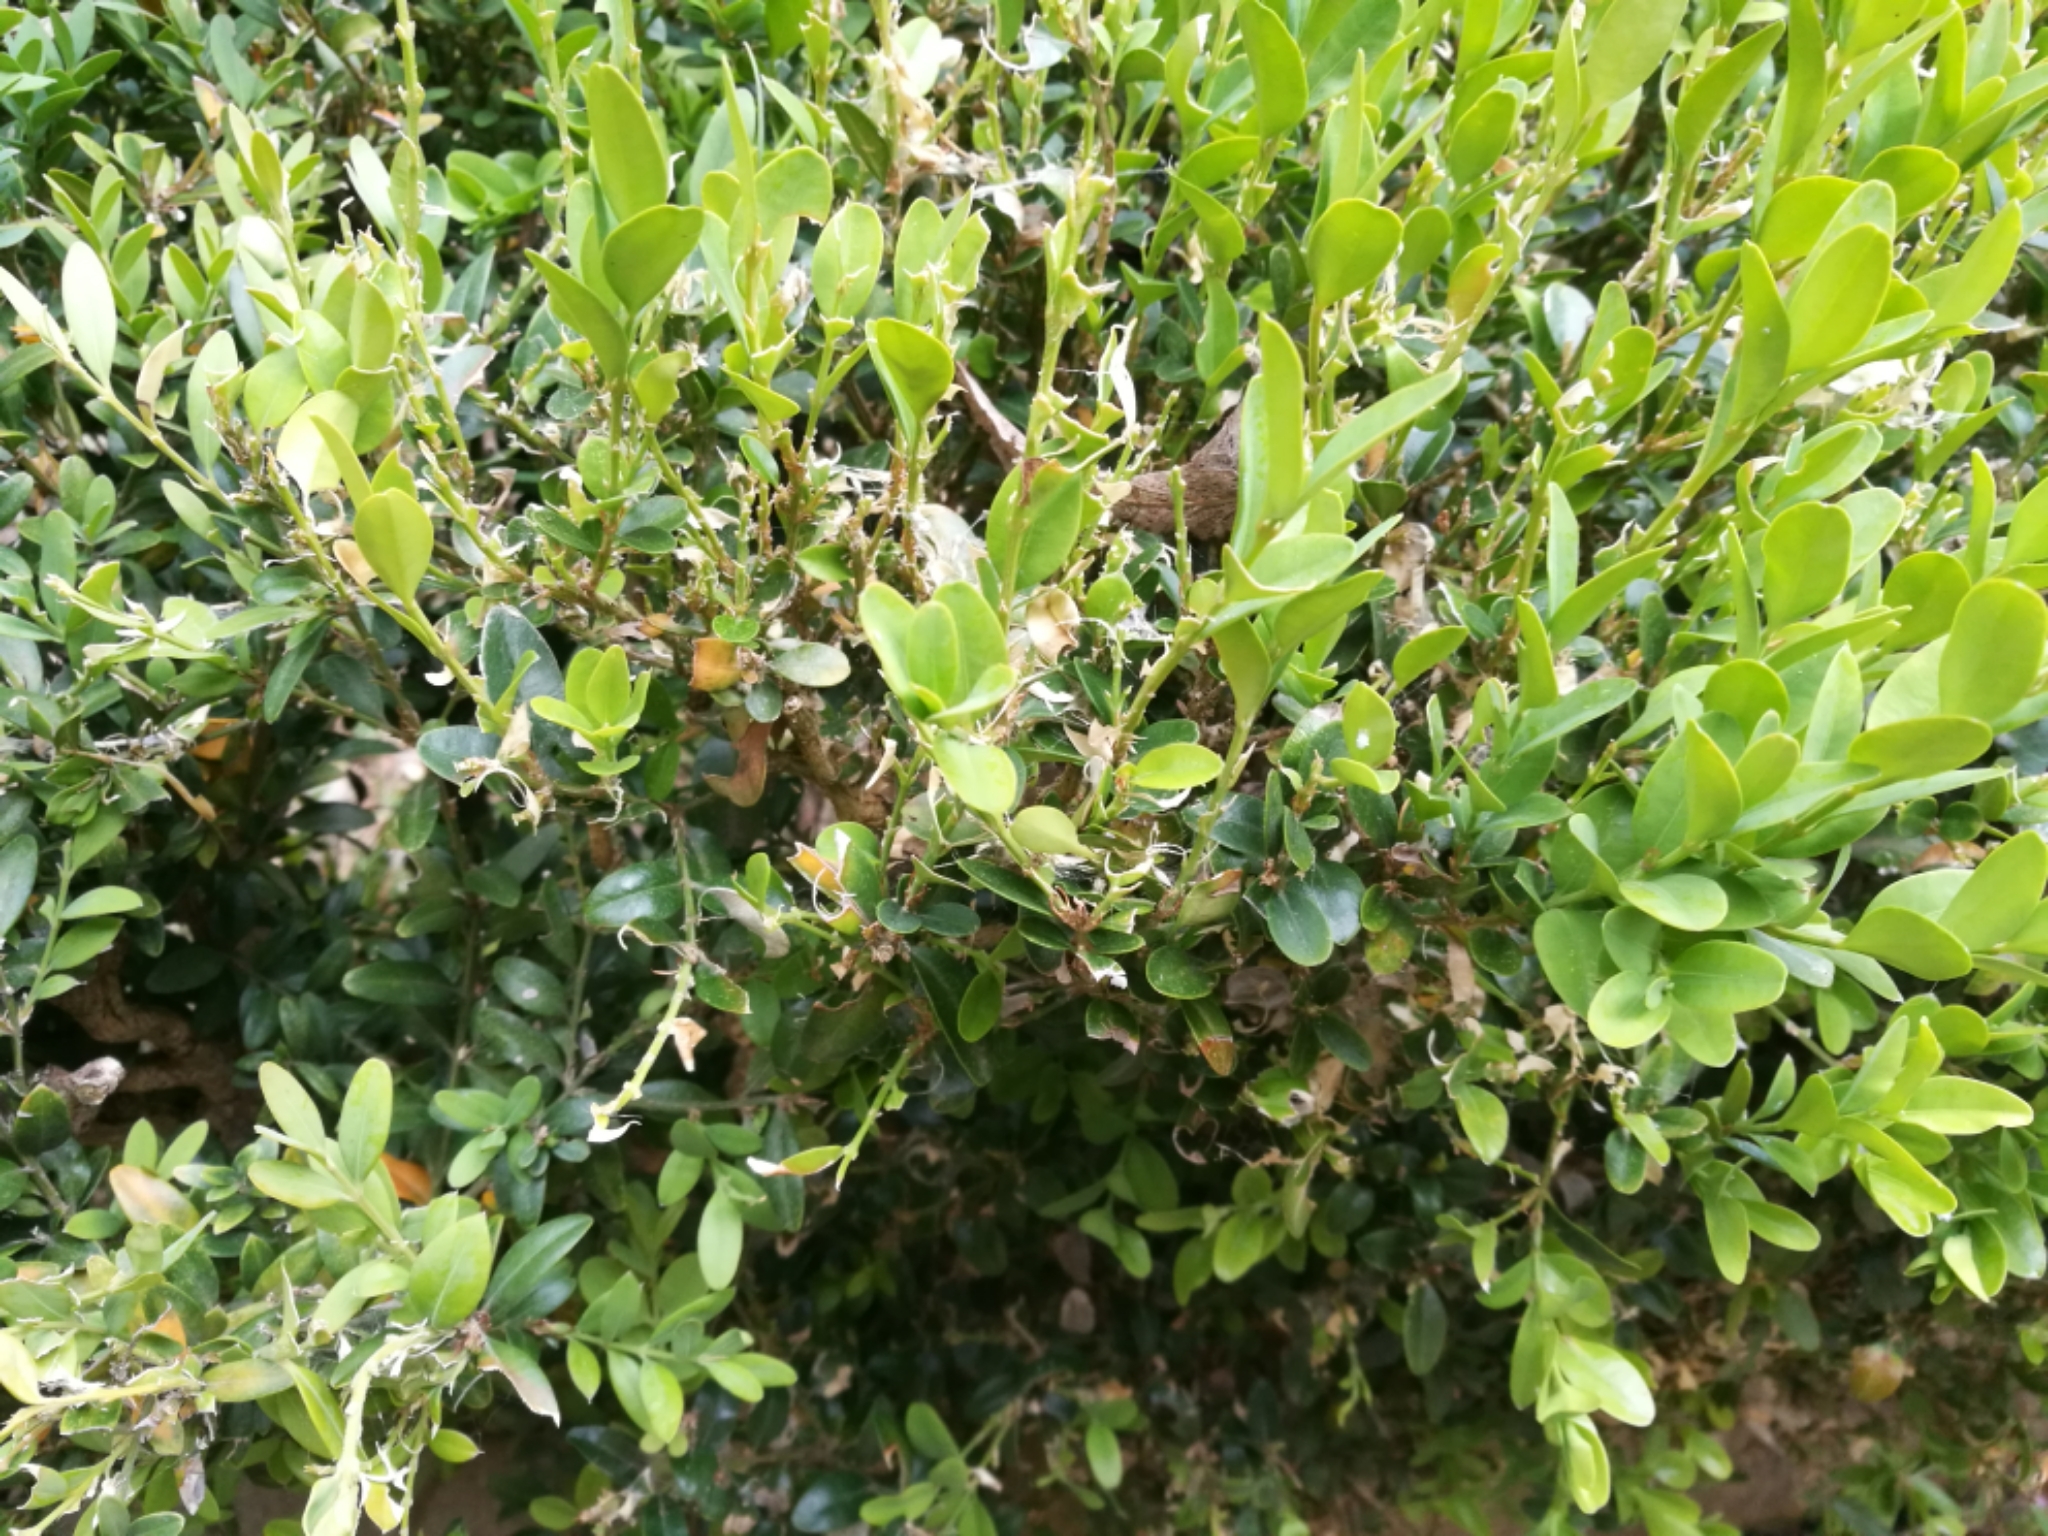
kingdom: Animalia
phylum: Arthropoda
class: Insecta
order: Lepidoptera
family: Crambidae
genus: Cydalima
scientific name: Cydalima perspectalis
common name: Box tree moth
